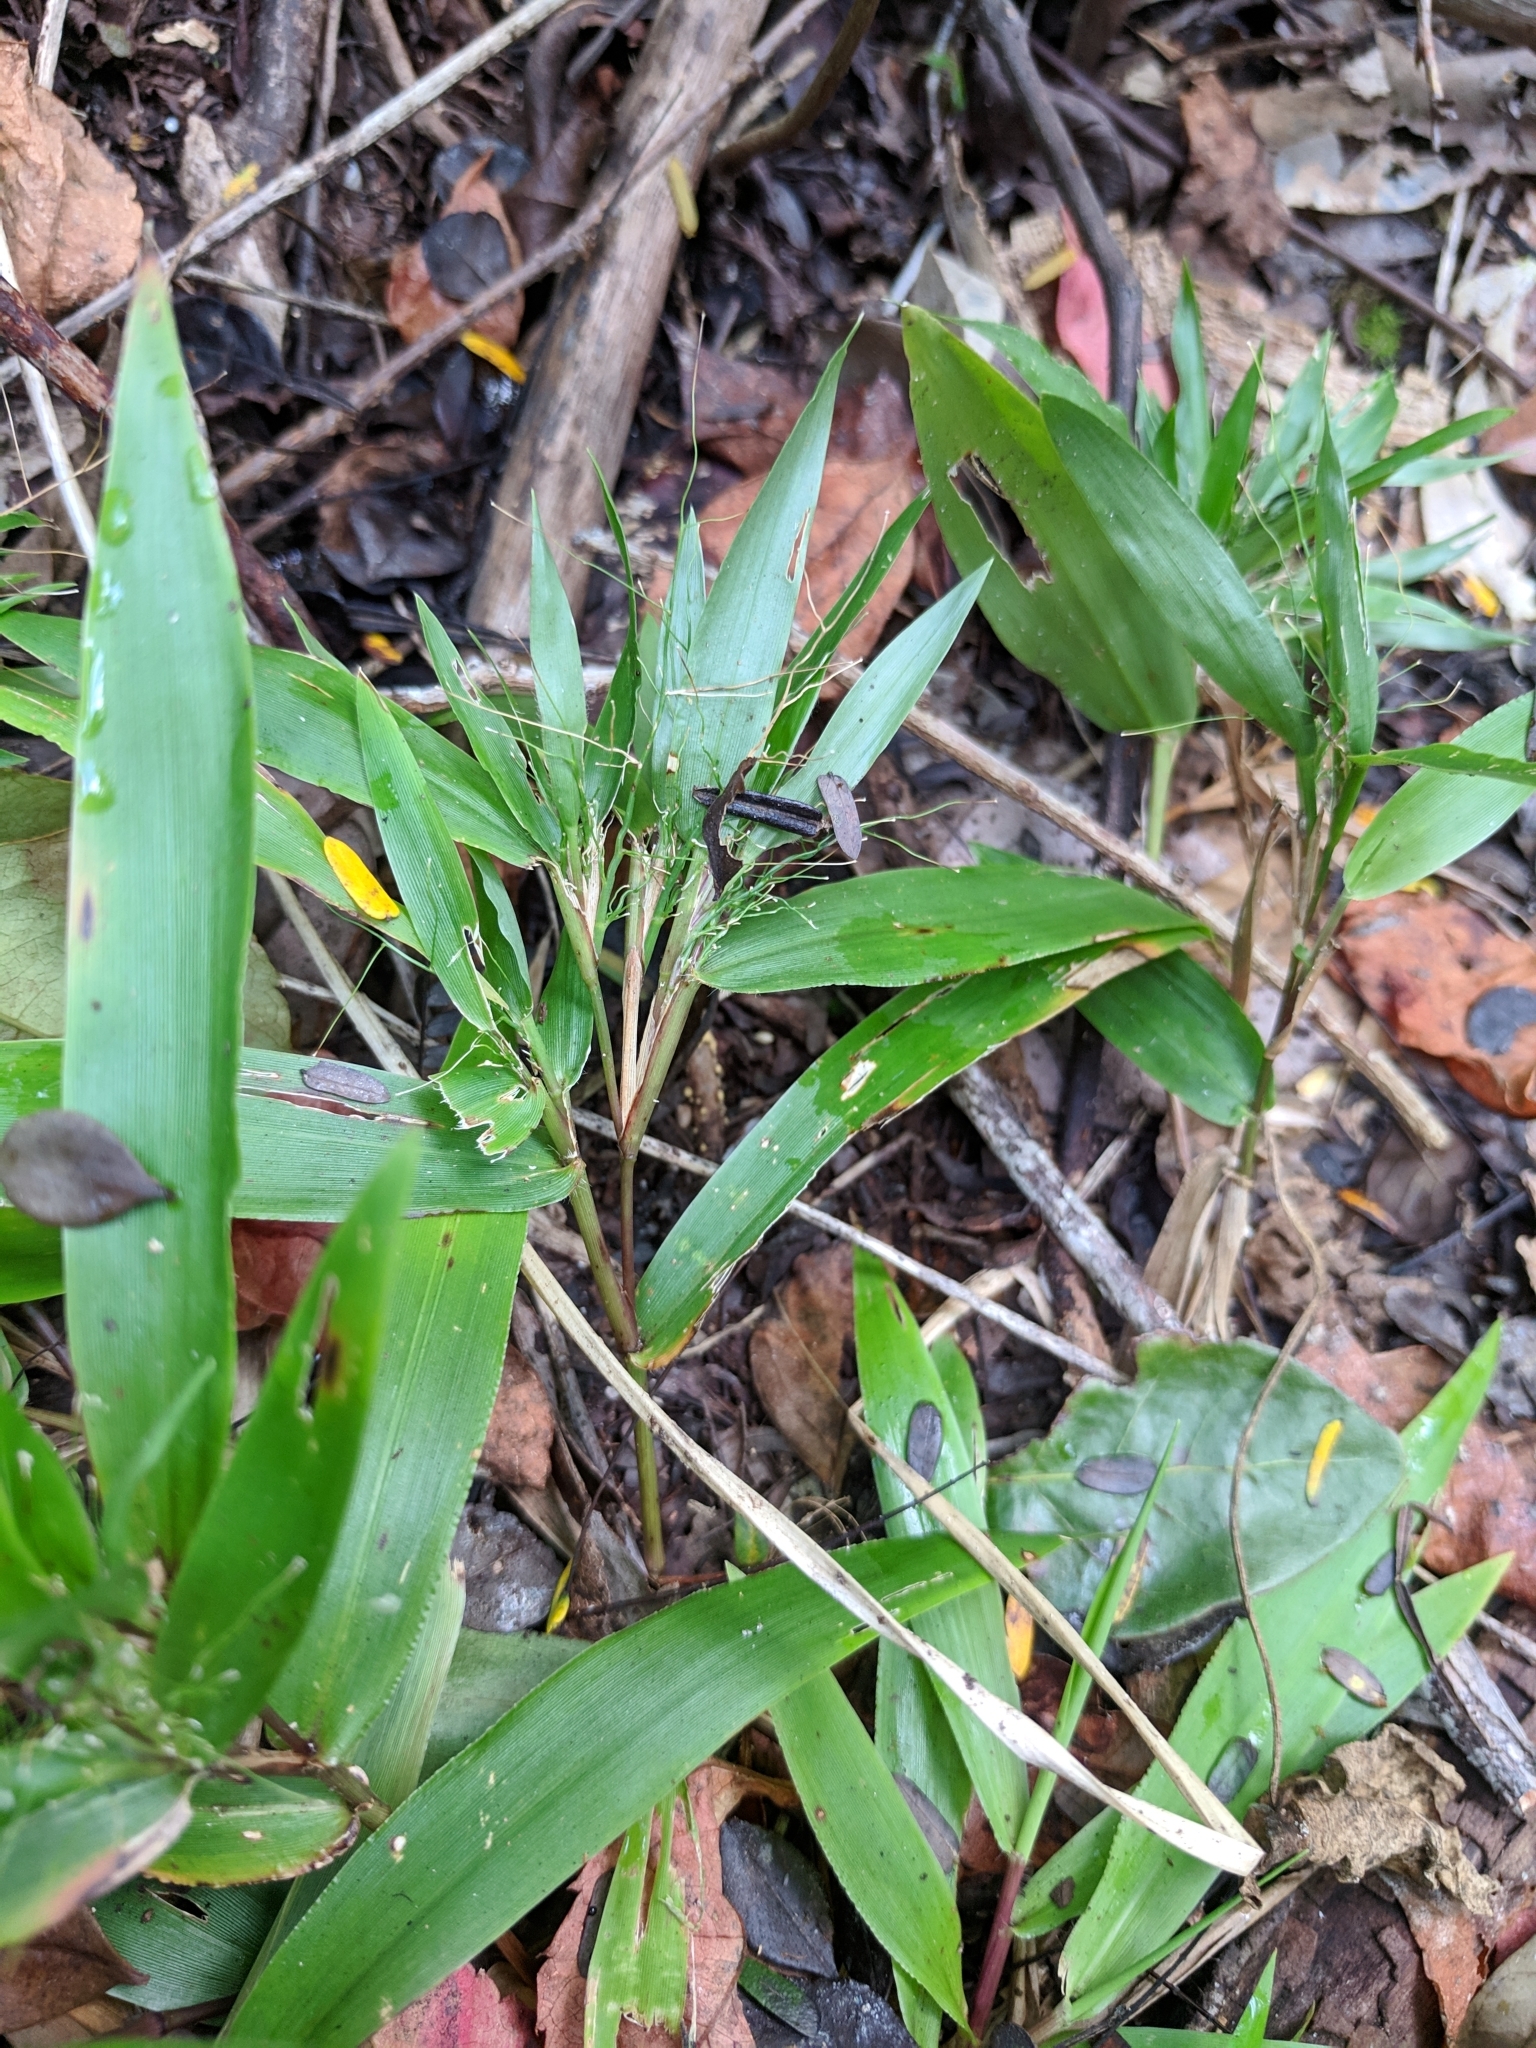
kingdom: Plantae
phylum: Tracheophyta
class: Liliopsida
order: Poales
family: Poaceae
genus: Dichanthelium
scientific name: Dichanthelium commutatum
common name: Variable witchgrass
